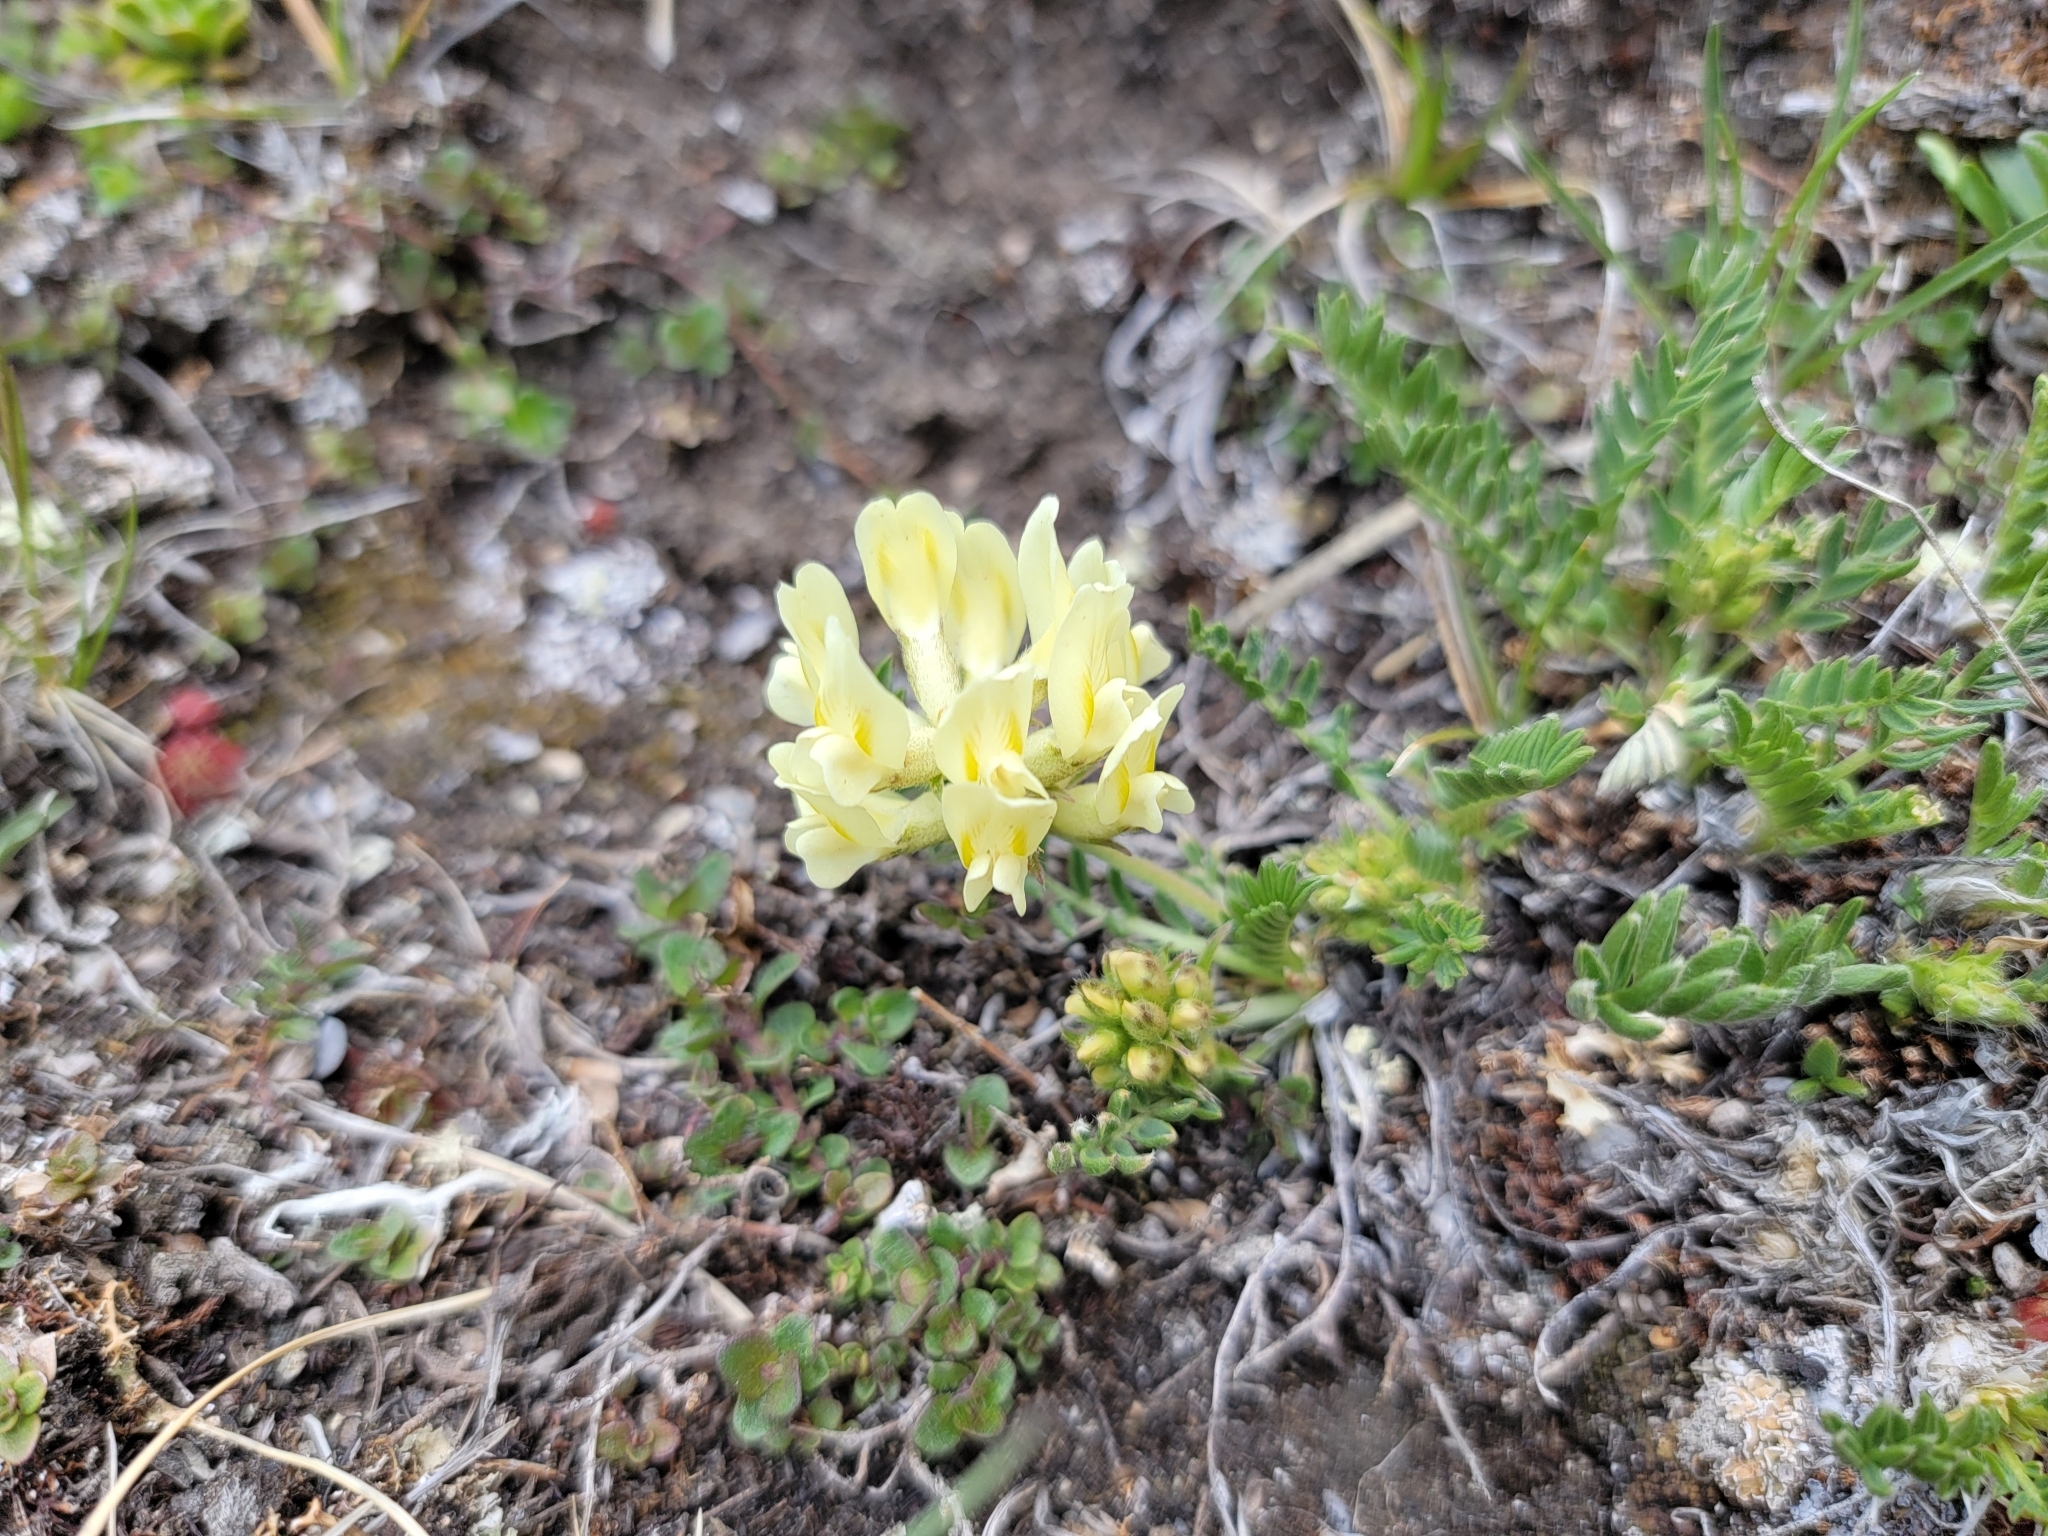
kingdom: Plantae
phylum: Tracheophyta
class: Magnoliopsida
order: Fabales
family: Fabaceae
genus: Oxytropis
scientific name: Oxytropis campestris
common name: Field locoweed
